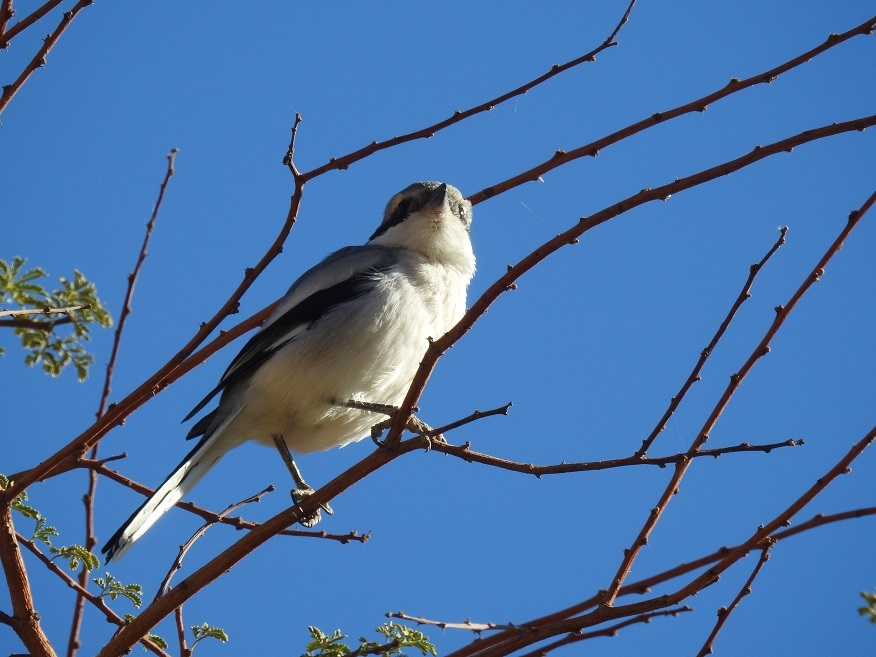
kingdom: Animalia
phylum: Chordata
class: Aves
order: Passeriformes
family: Laniidae
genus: Lanius
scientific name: Lanius excubitor
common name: Great grey shrike
